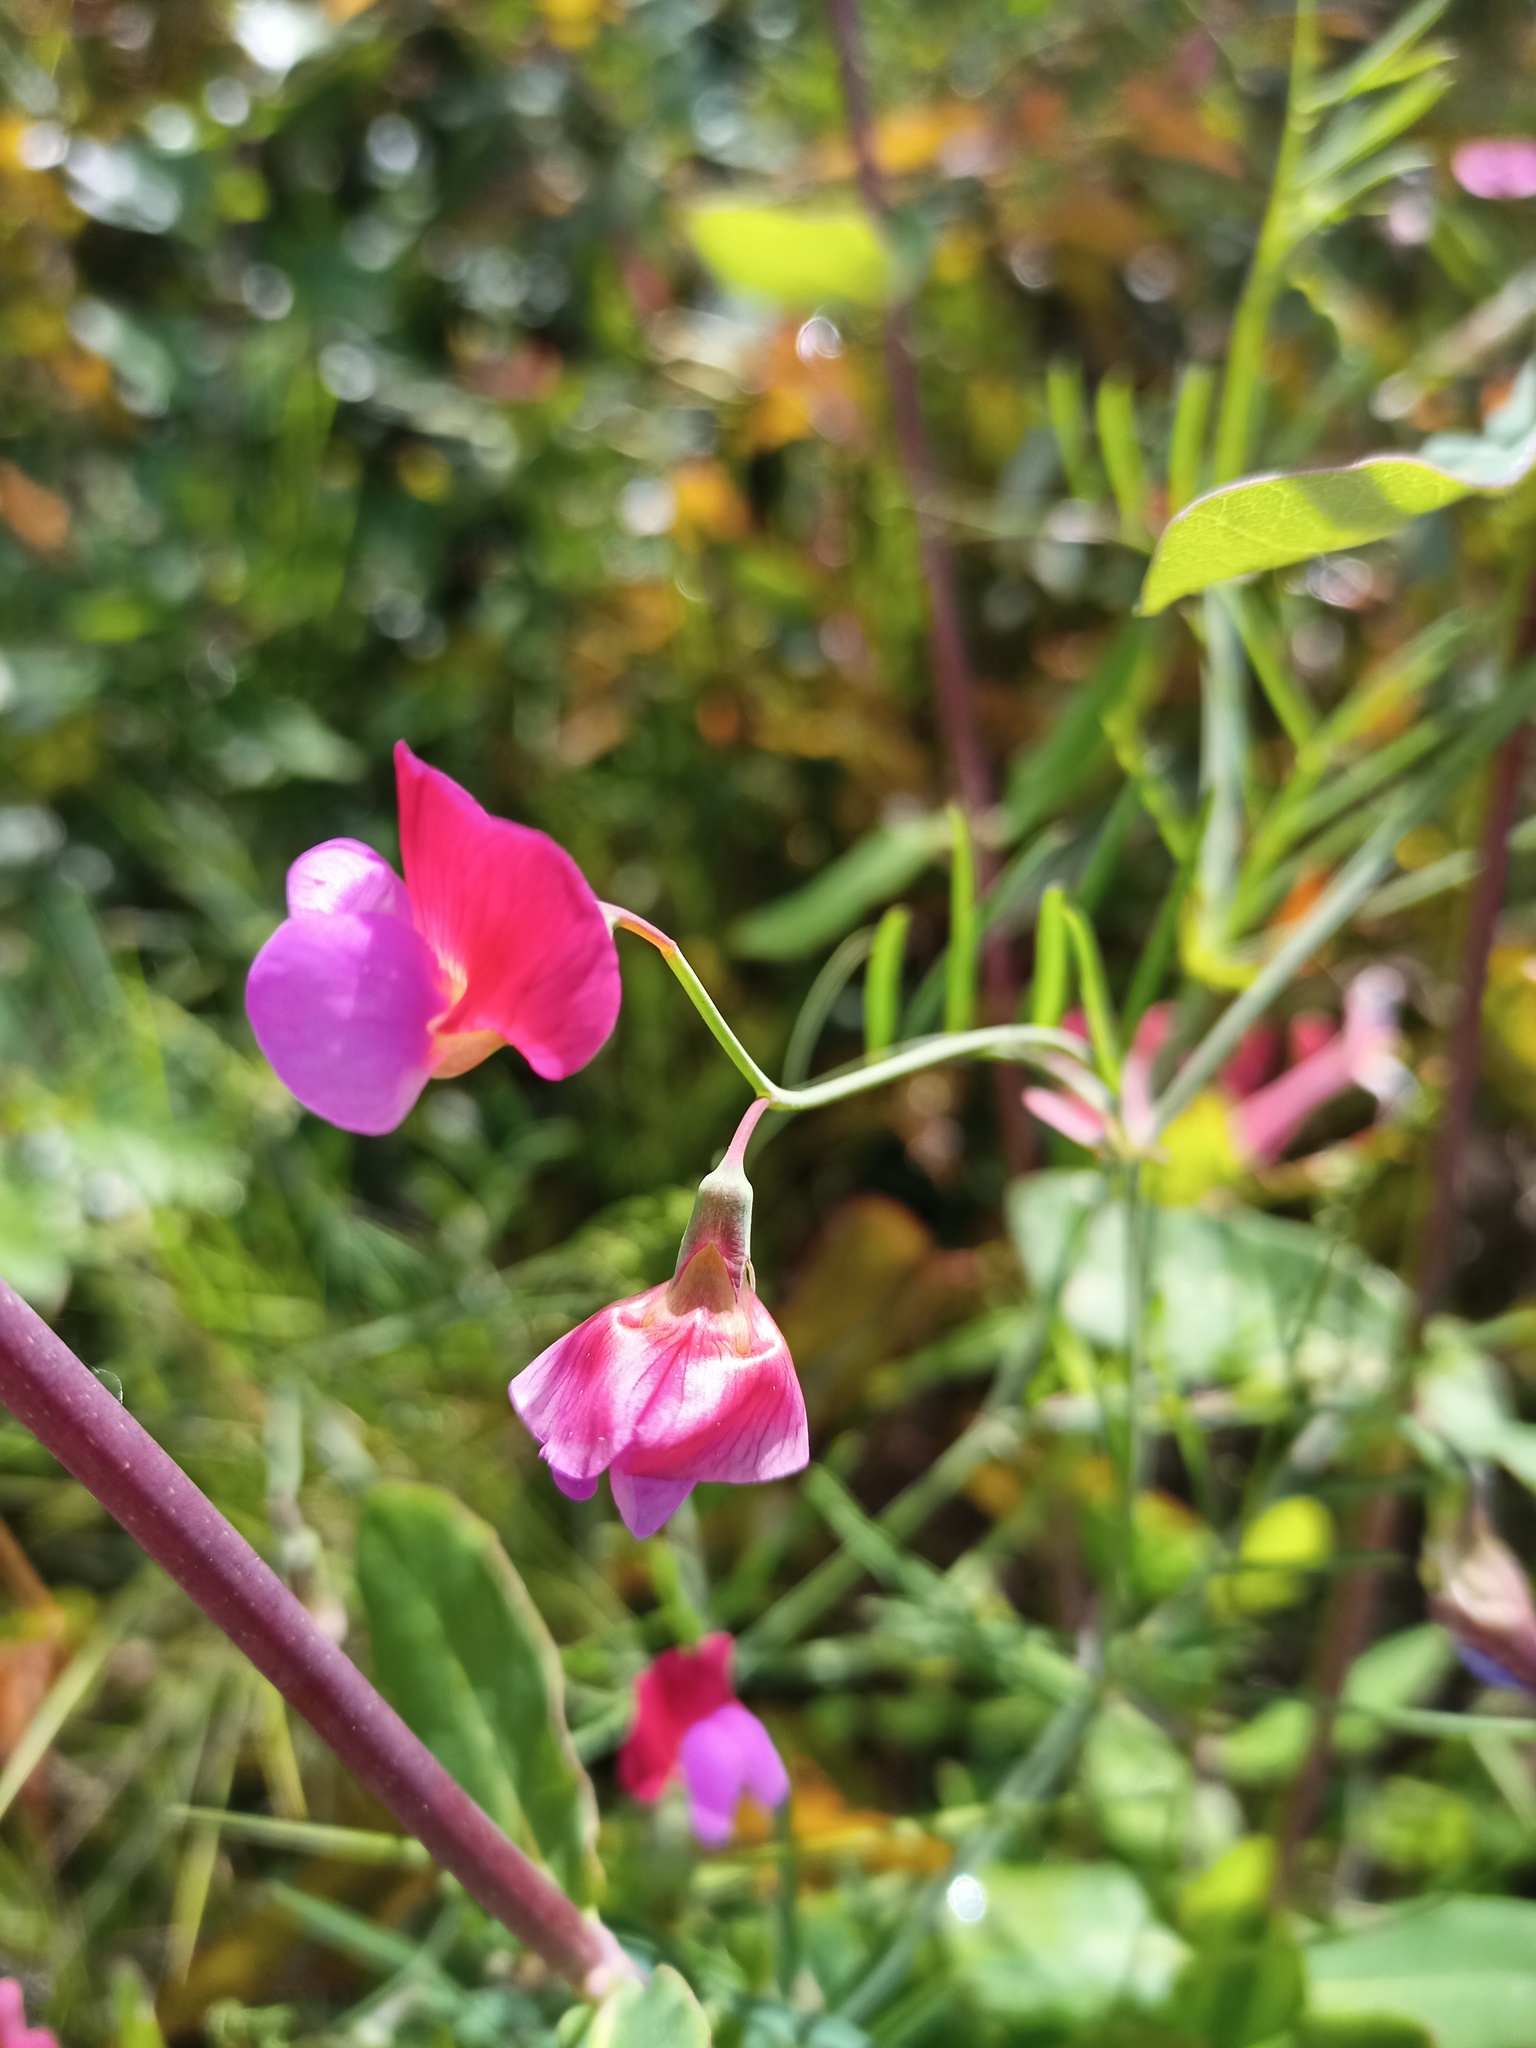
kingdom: Plantae
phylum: Tracheophyta
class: Magnoliopsida
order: Fabales
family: Fabaceae
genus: Lathyrus
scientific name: Lathyrus clymenum
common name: Spanish vetchling
